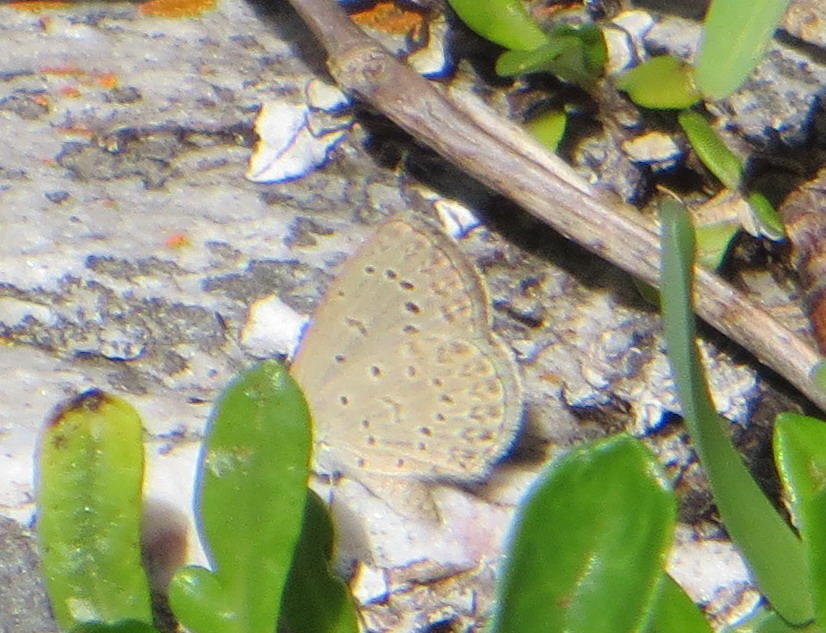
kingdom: Animalia
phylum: Arthropoda
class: Insecta
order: Lepidoptera
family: Lycaenidae
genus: Zizeeria
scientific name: Zizeeria knysna
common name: African grass blue
